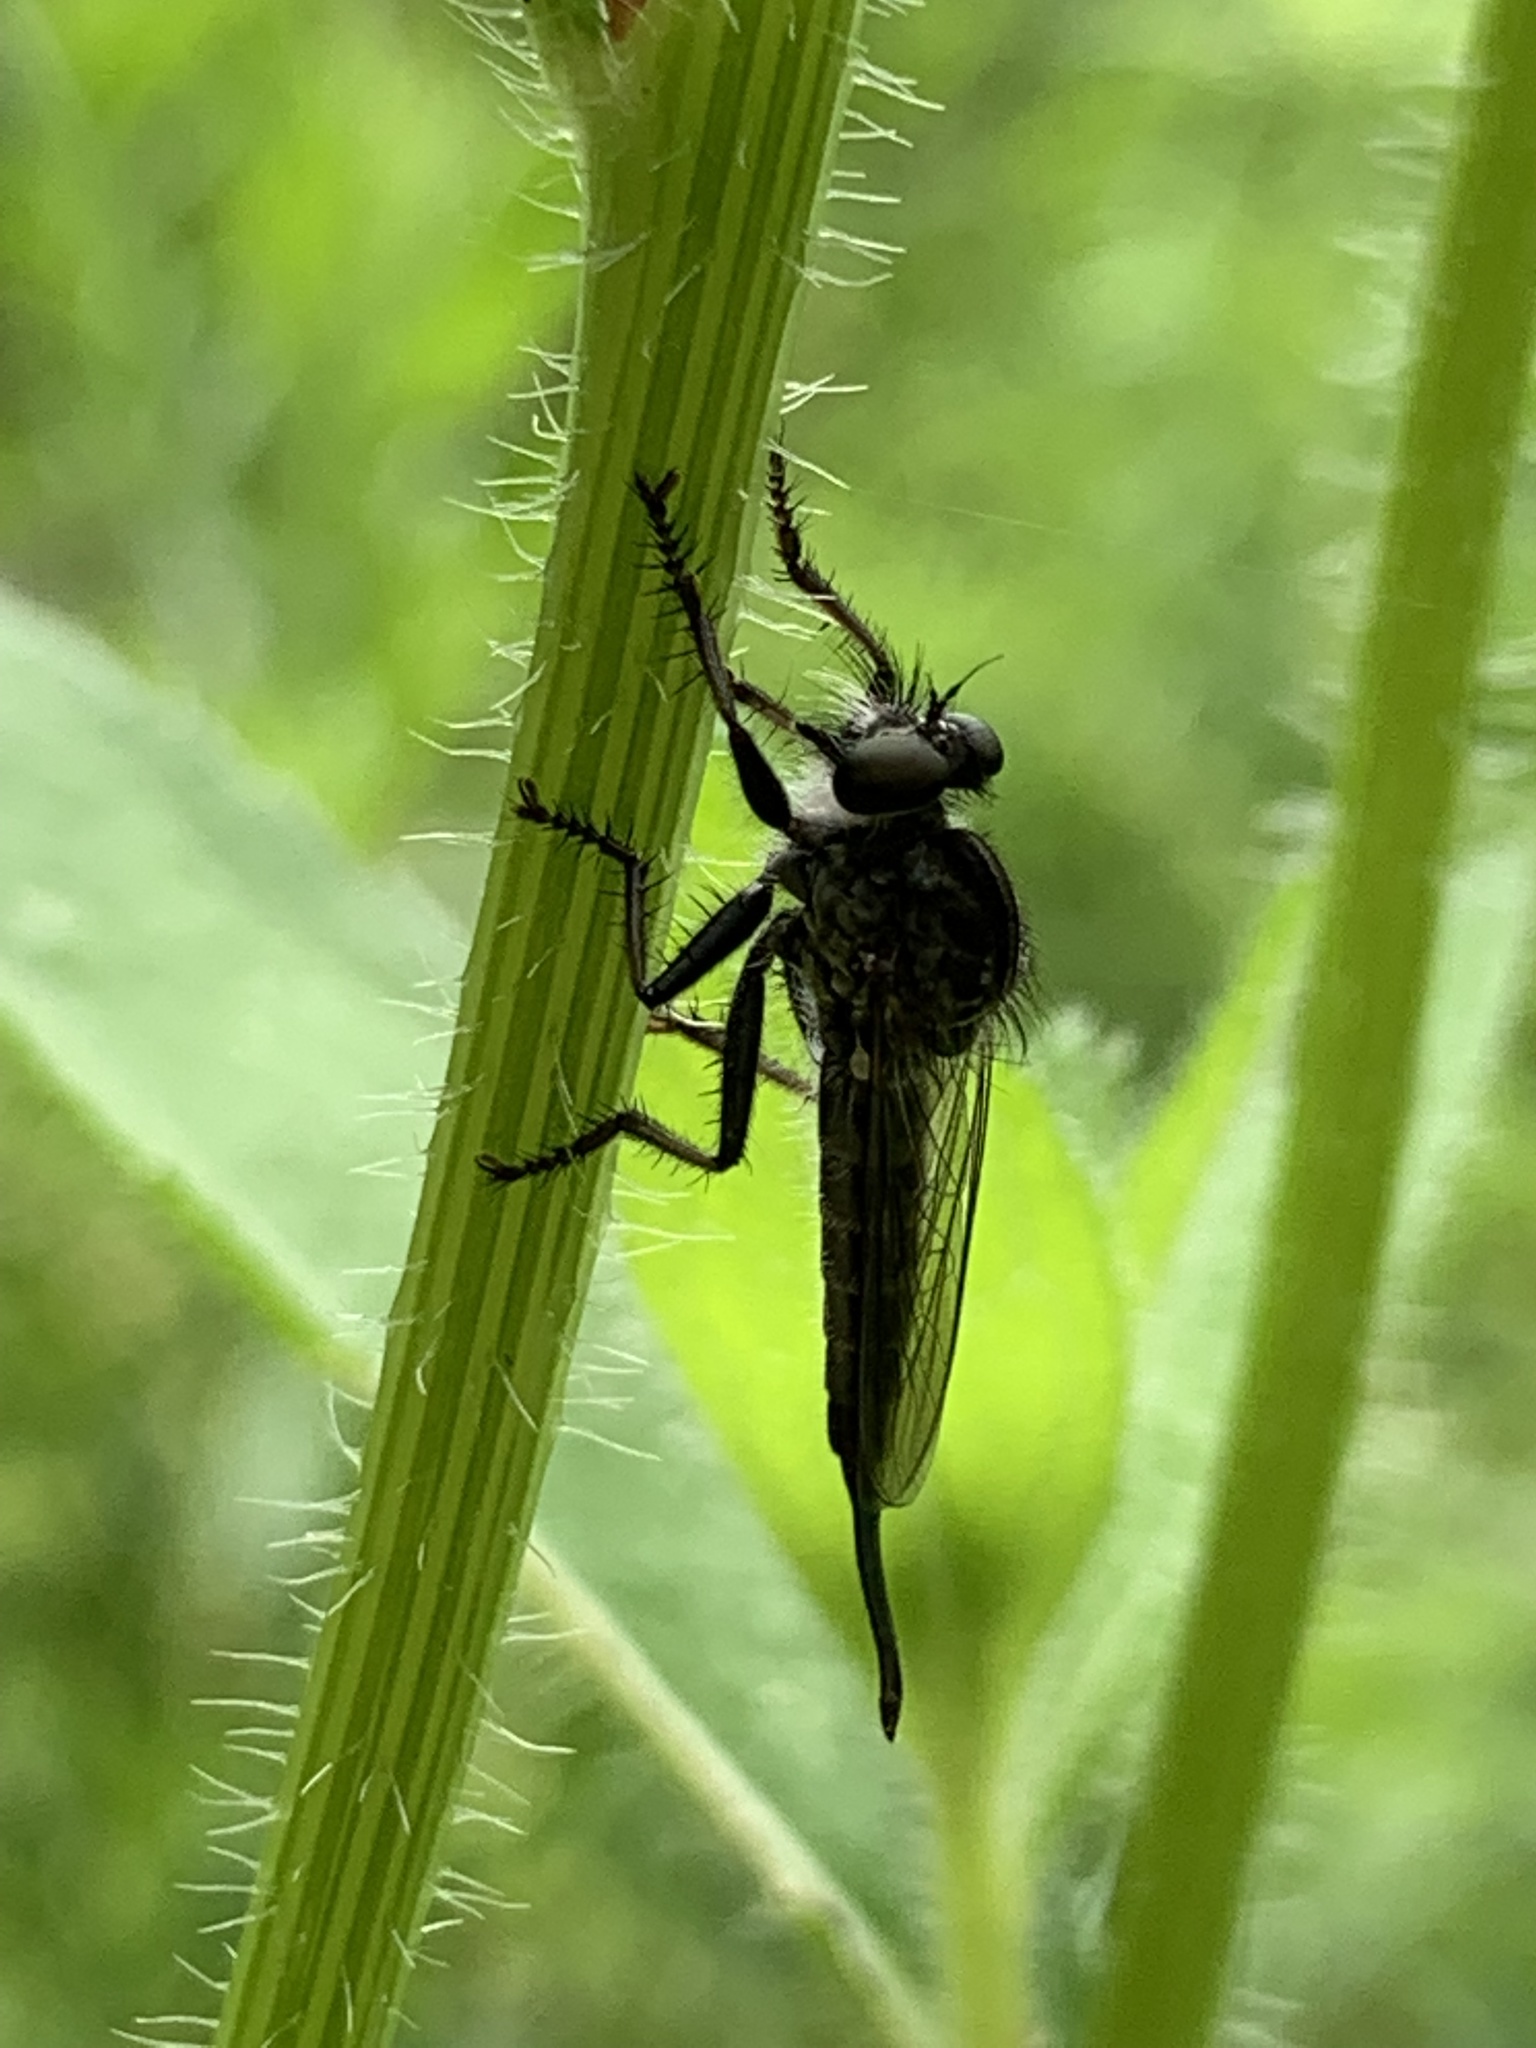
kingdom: Animalia
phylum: Arthropoda
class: Insecta
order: Diptera
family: Asilidae
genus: Efferia
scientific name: Efferia aestuans
